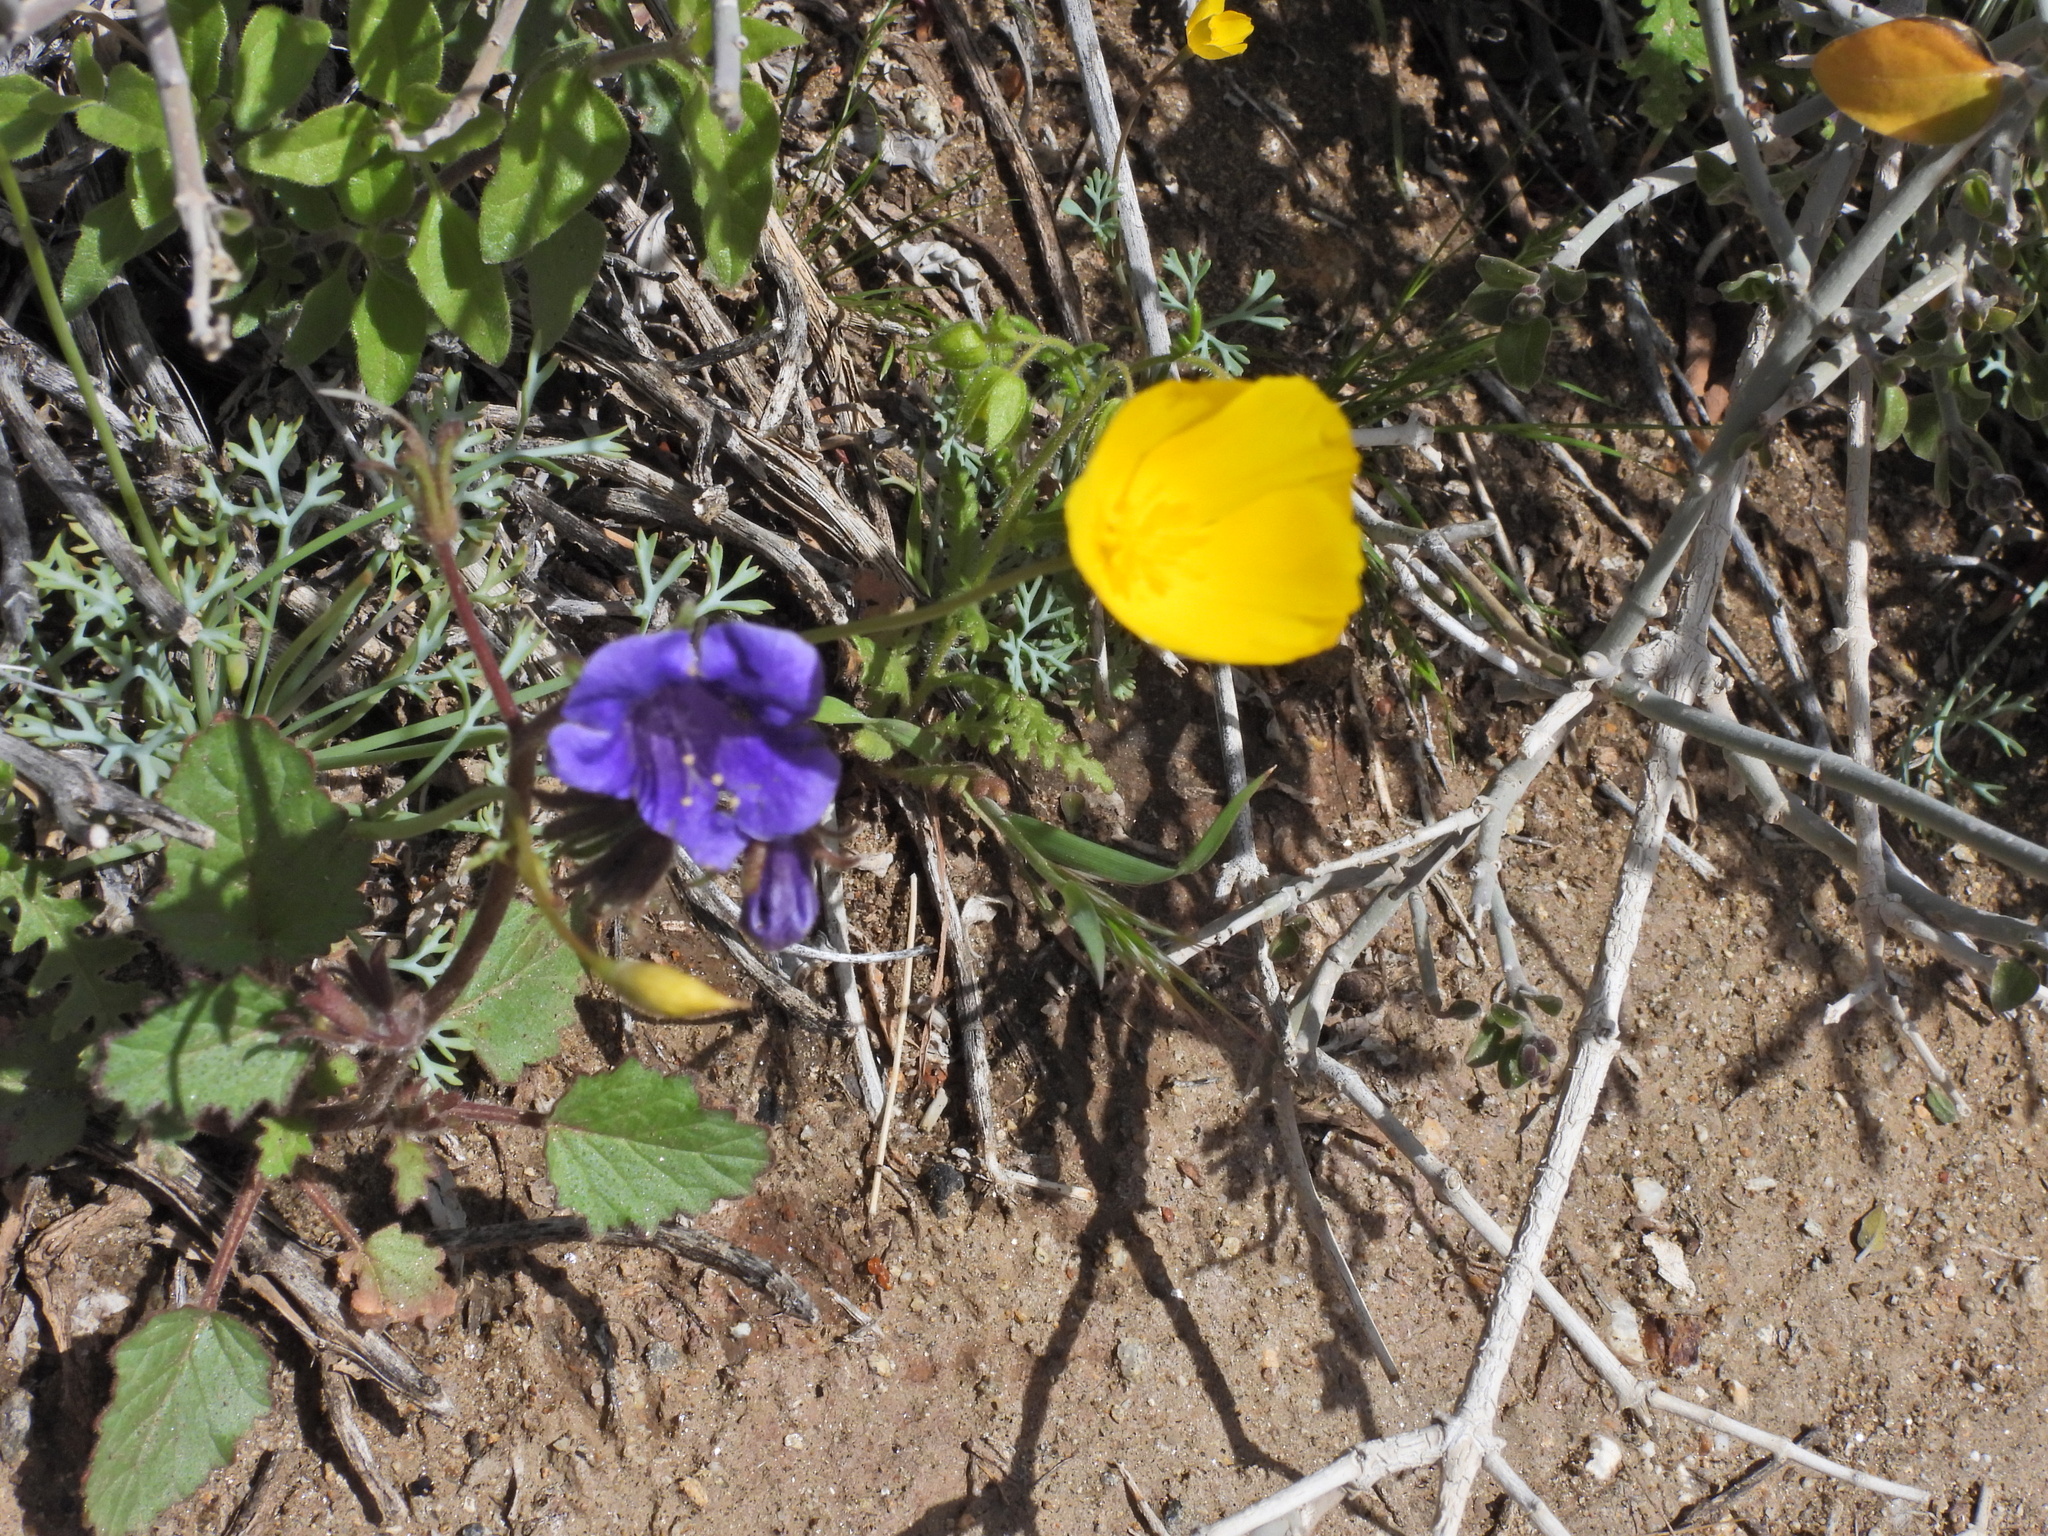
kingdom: Plantae
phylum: Tracheophyta
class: Magnoliopsida
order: Boraginales
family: Hydrophyllaceae
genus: Phacelia
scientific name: Phacelia minor
